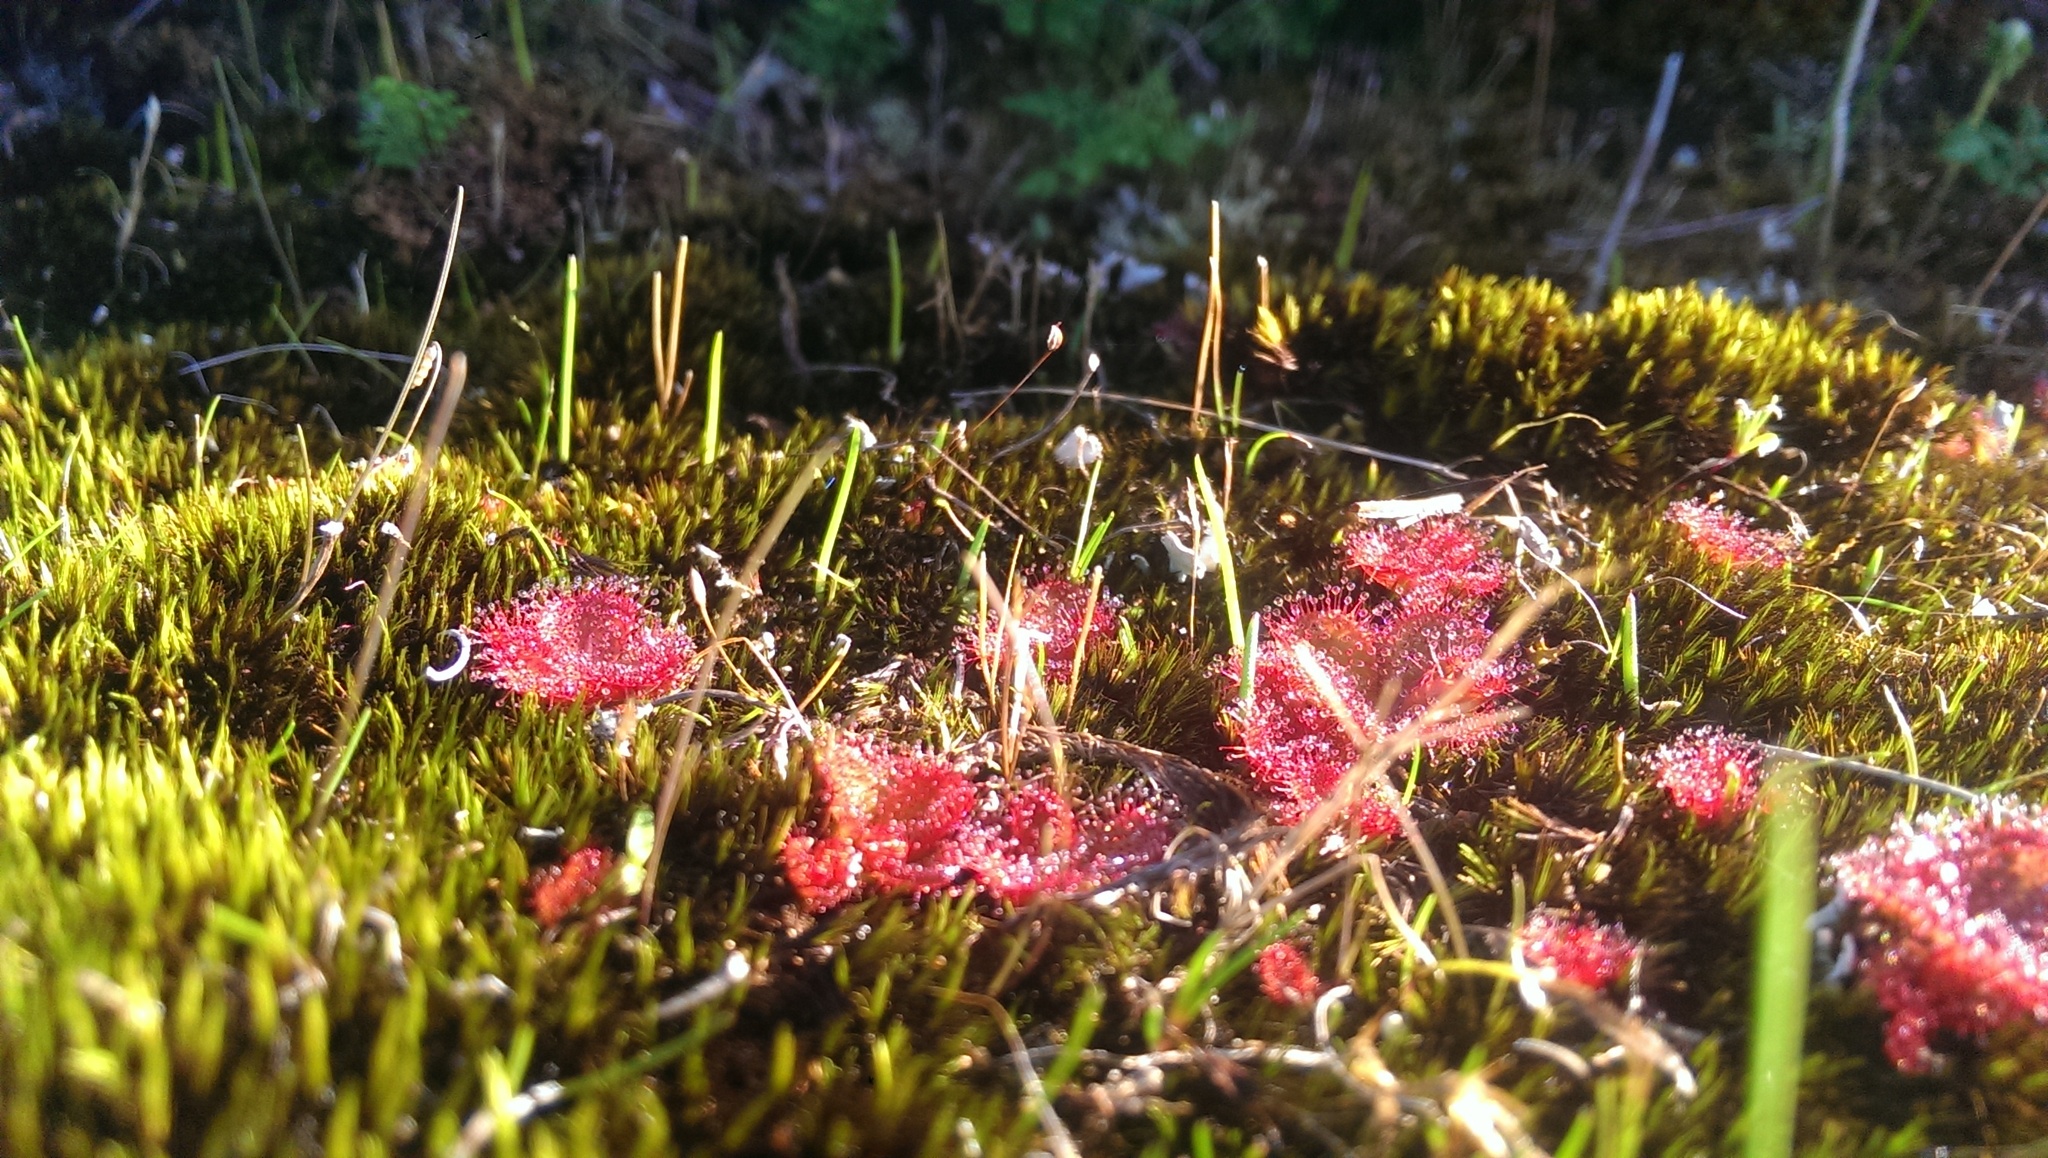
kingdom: Plantae
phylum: Tracheophyta
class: Magnoliopsida
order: Caryophyllales
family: Droseraceae
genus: Drosera
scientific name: Drosera tubaestylis
